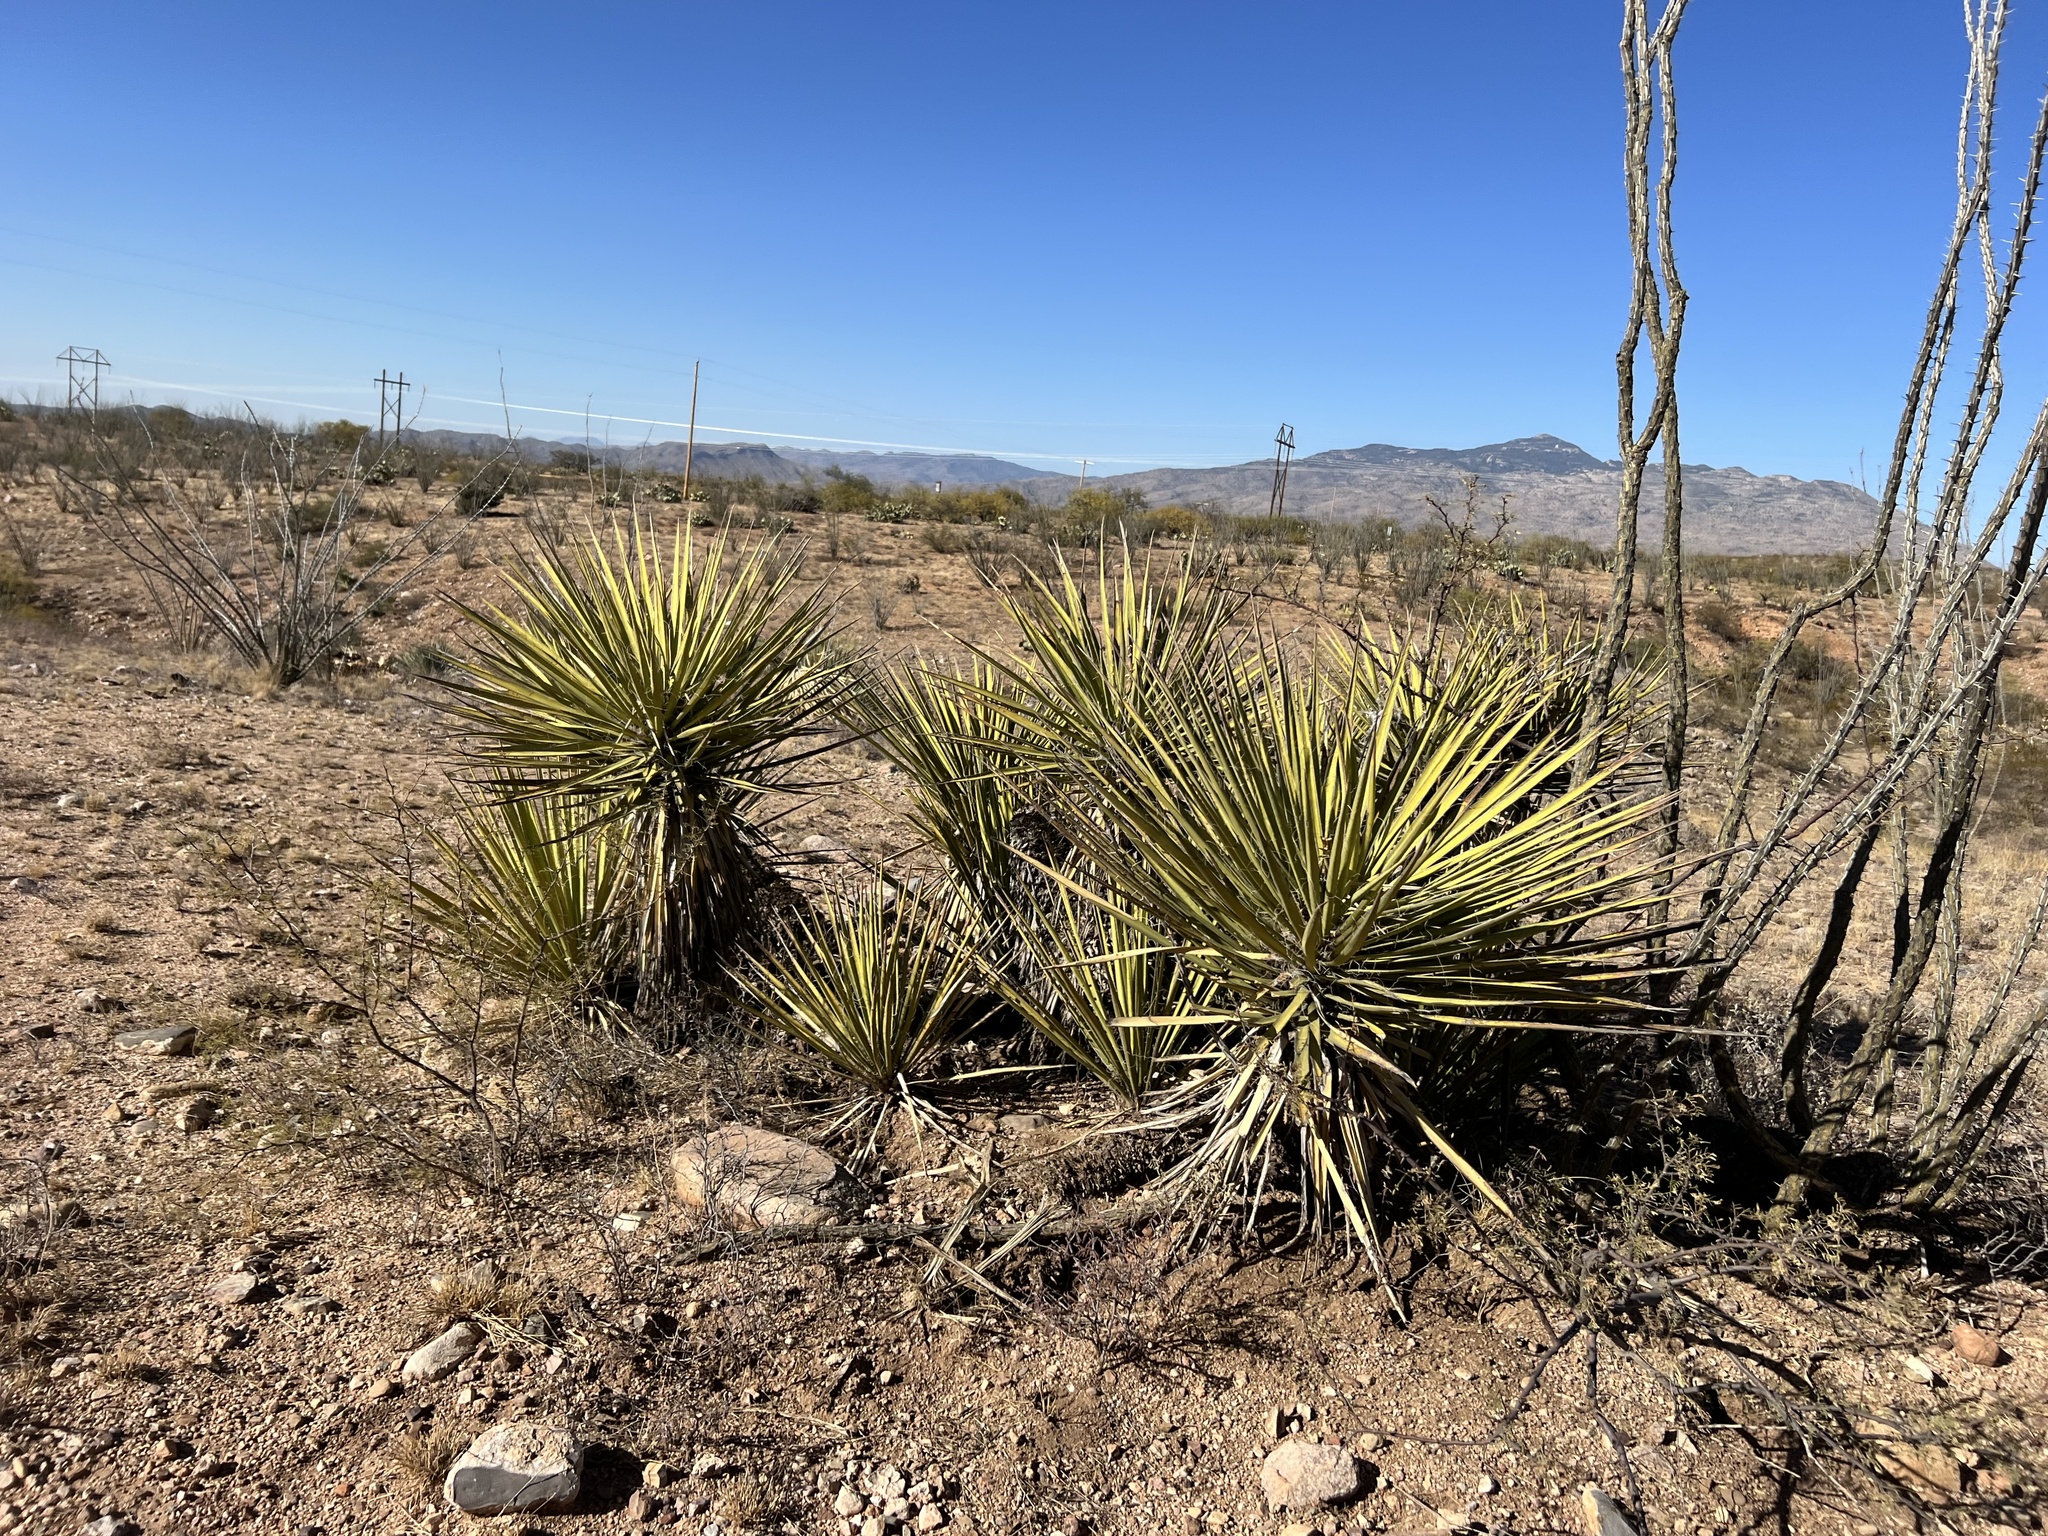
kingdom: Plantae
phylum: Tracheophyta
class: Liliopsida
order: Asparagales
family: Asparagaceae
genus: Yucca
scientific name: Yucca baccata
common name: Banana yucca
